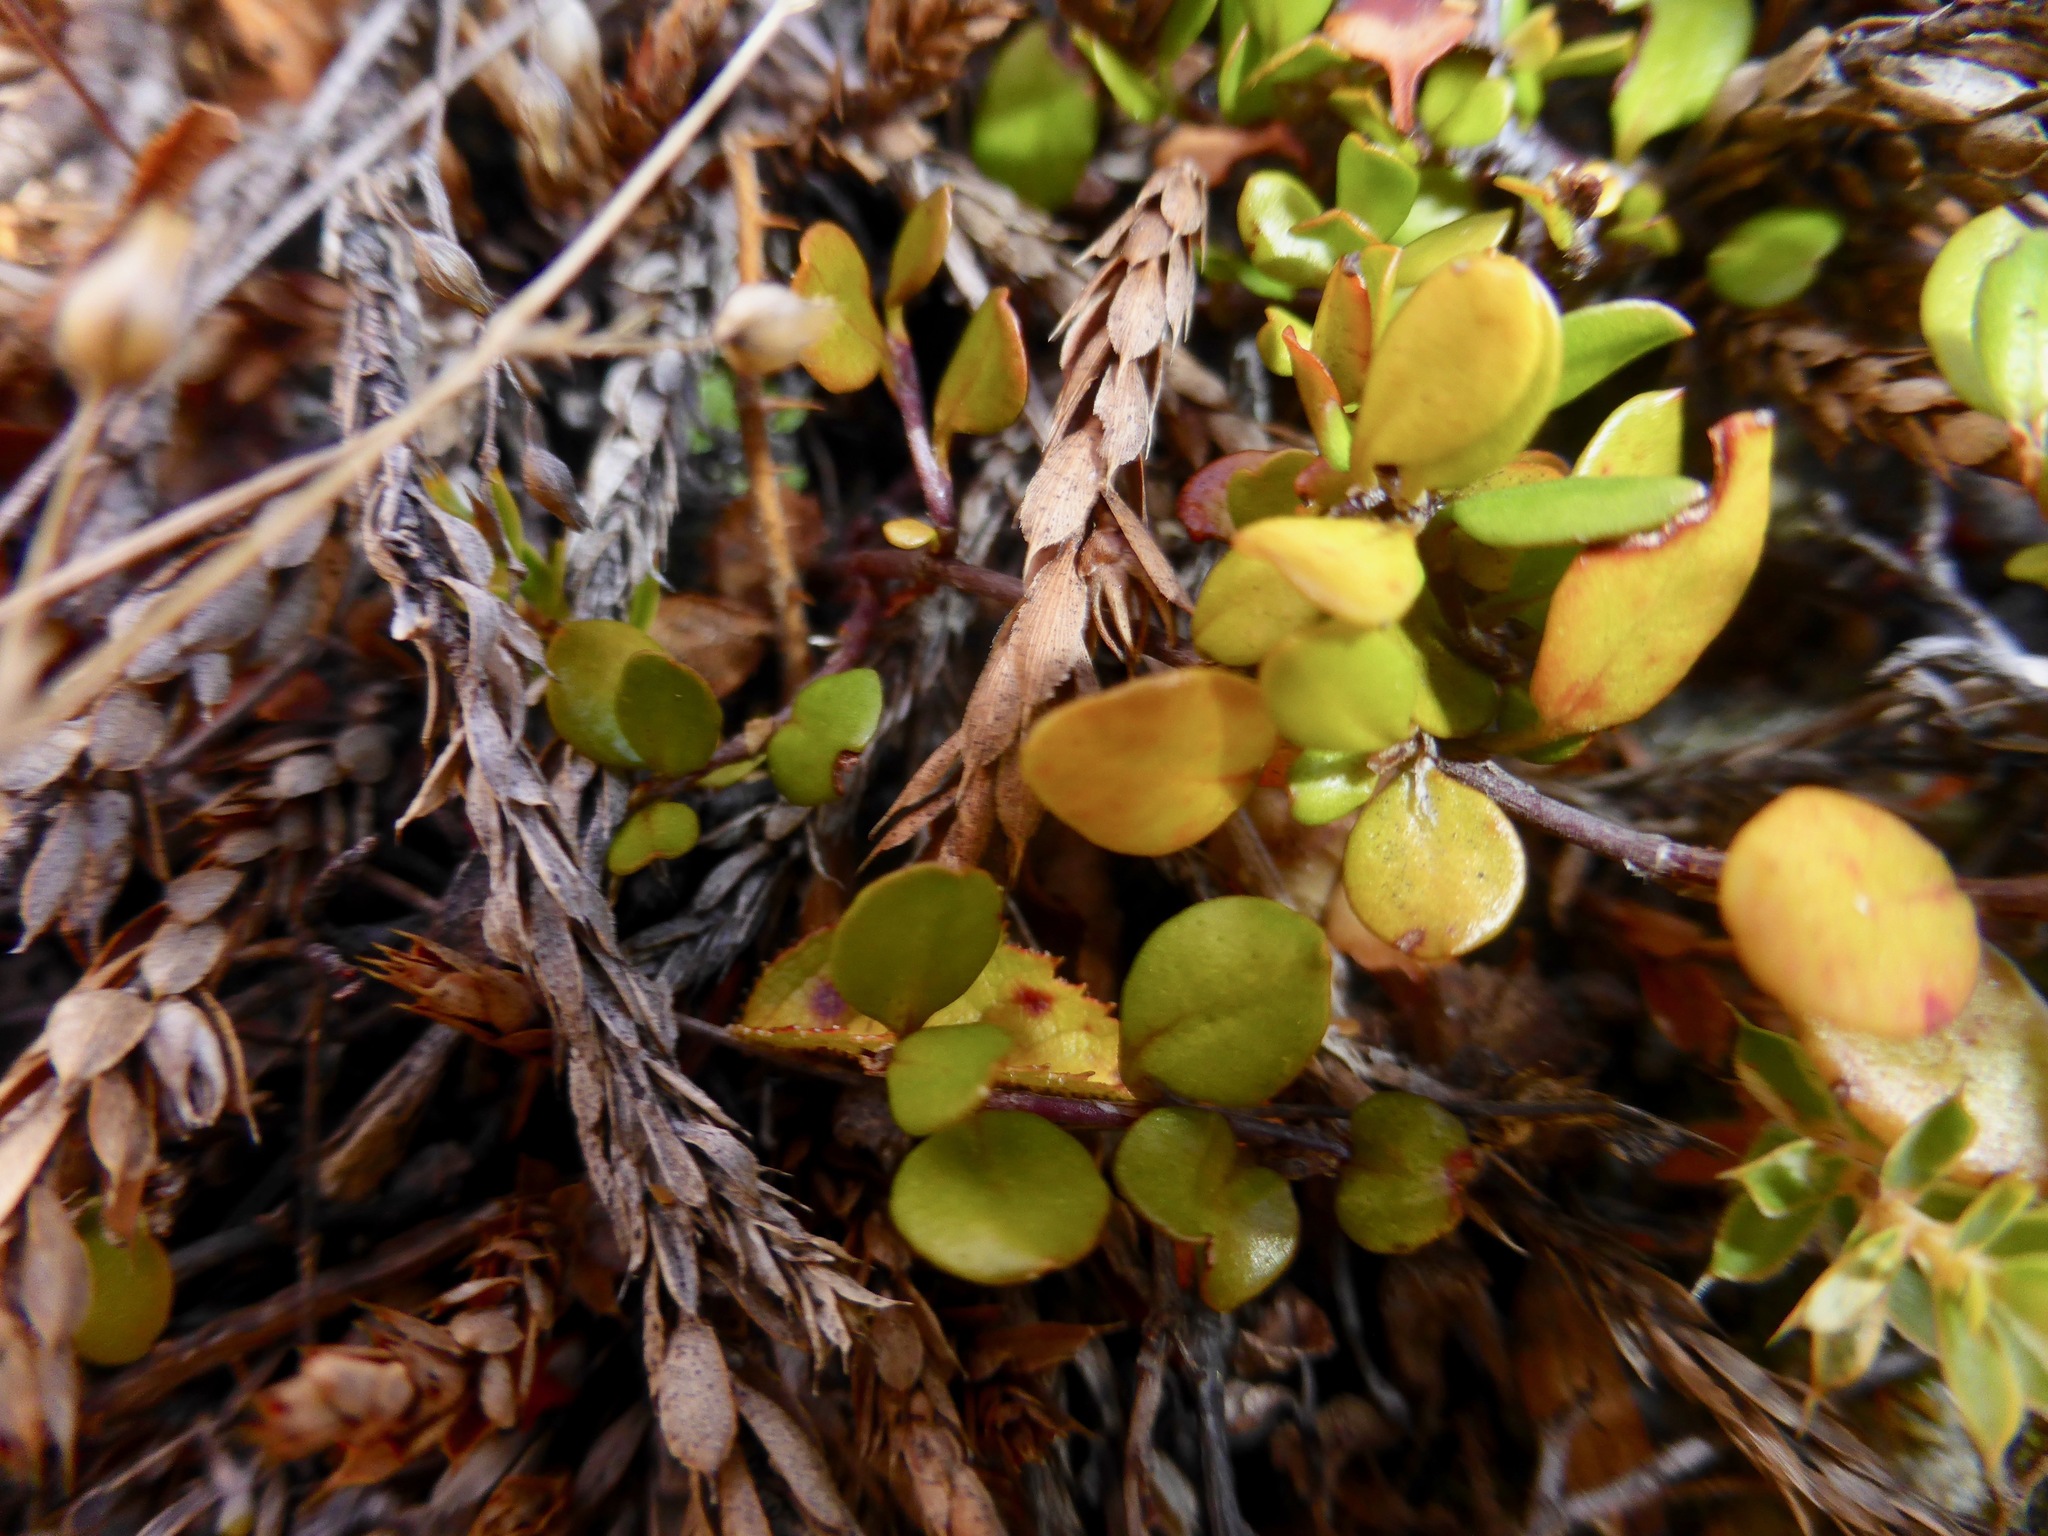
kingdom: Plantae
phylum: Tracheophyta
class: Magnoliopsida
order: Caryophyllales
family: Polygonaceae
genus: Muehlenbeckia
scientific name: Muehlenbeckia axillaris
